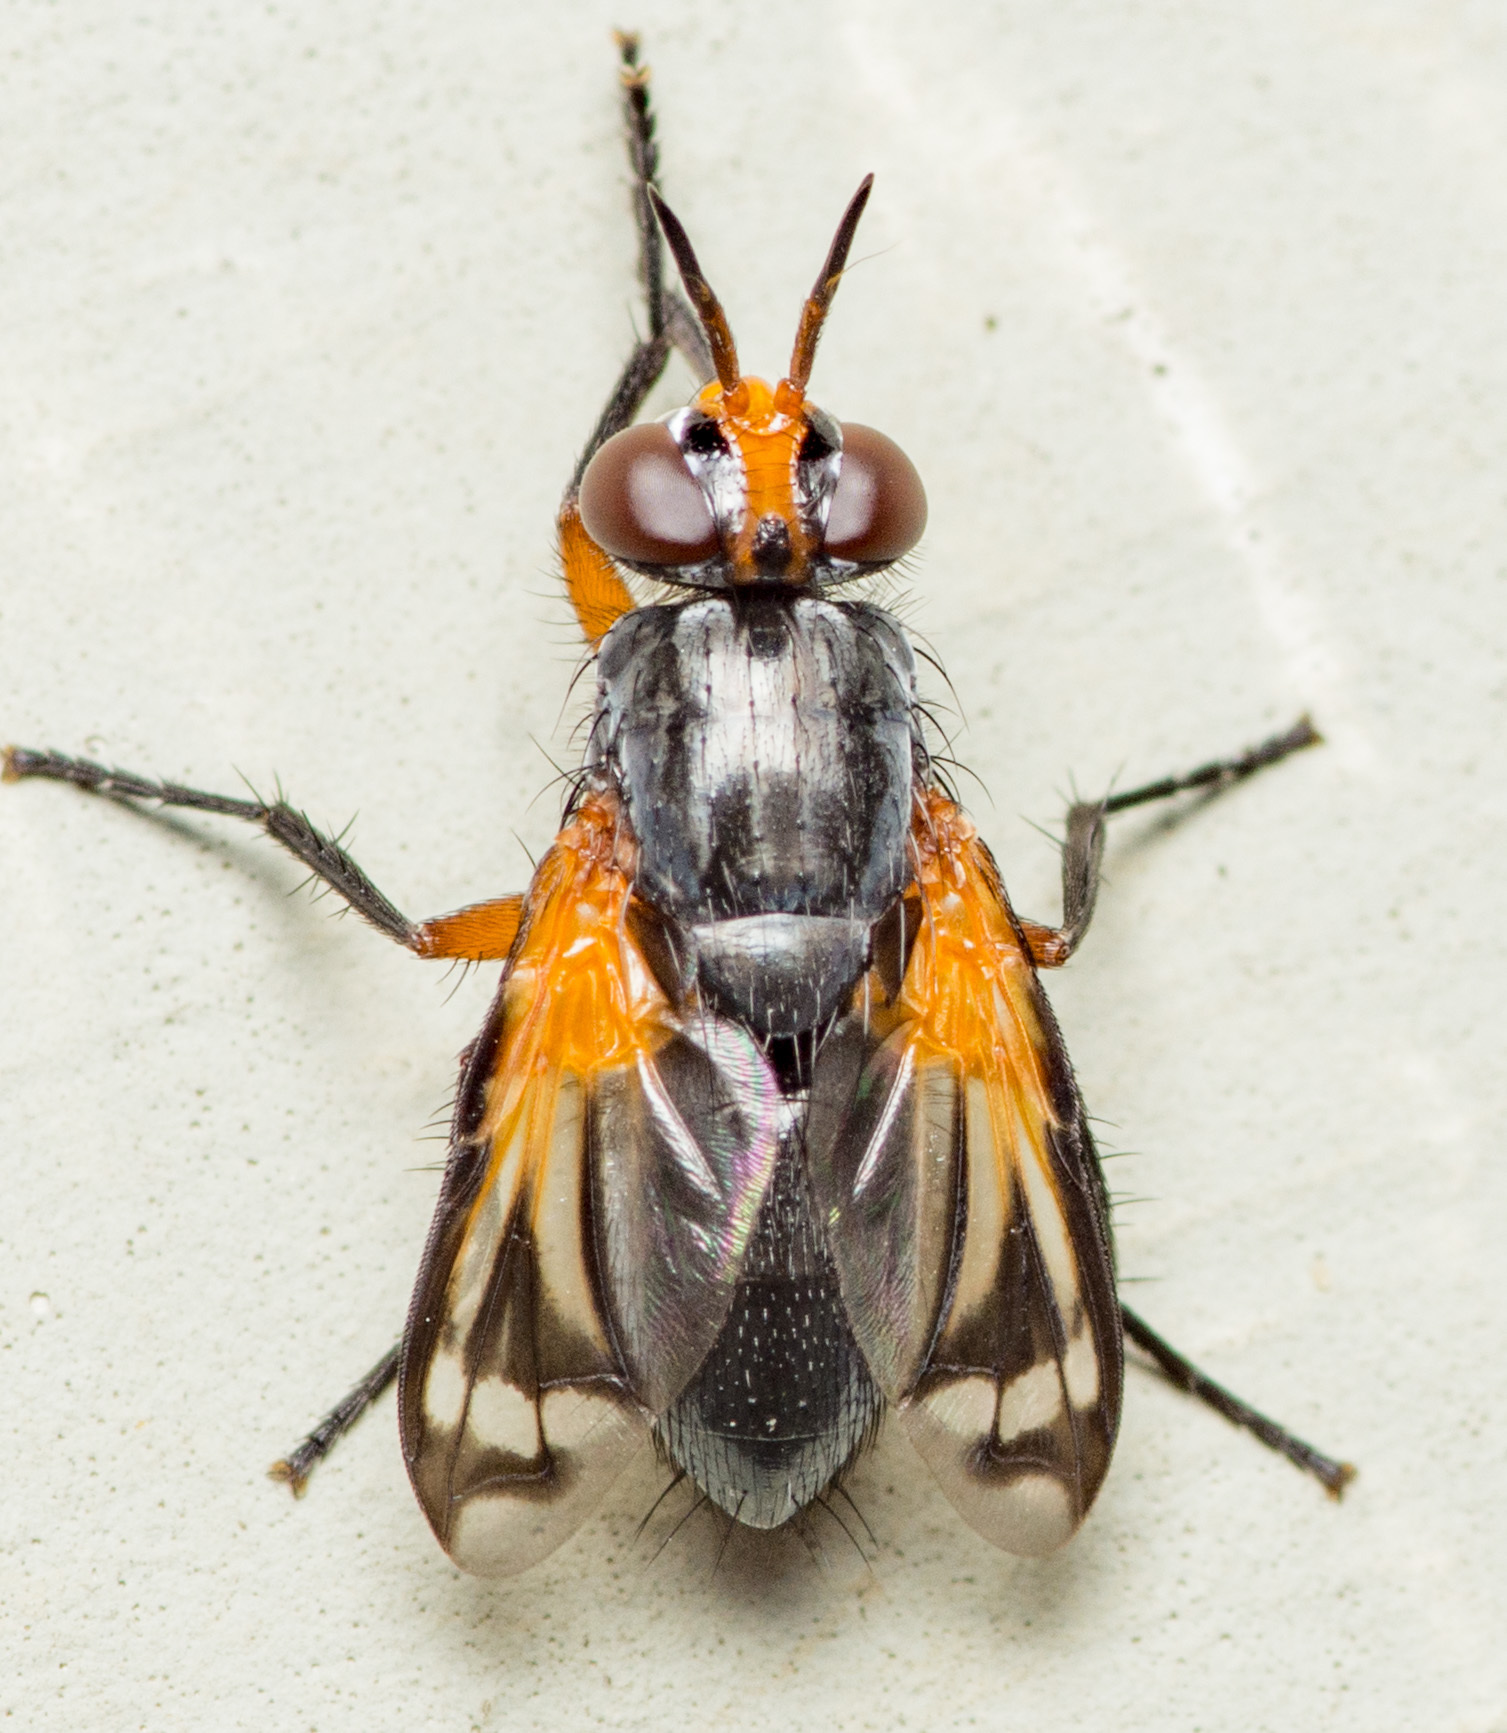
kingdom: Animalia
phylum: Arthropoda
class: Insecta
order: Diptera
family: Tachinidae
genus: Euthera
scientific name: Euthera tentatrix
